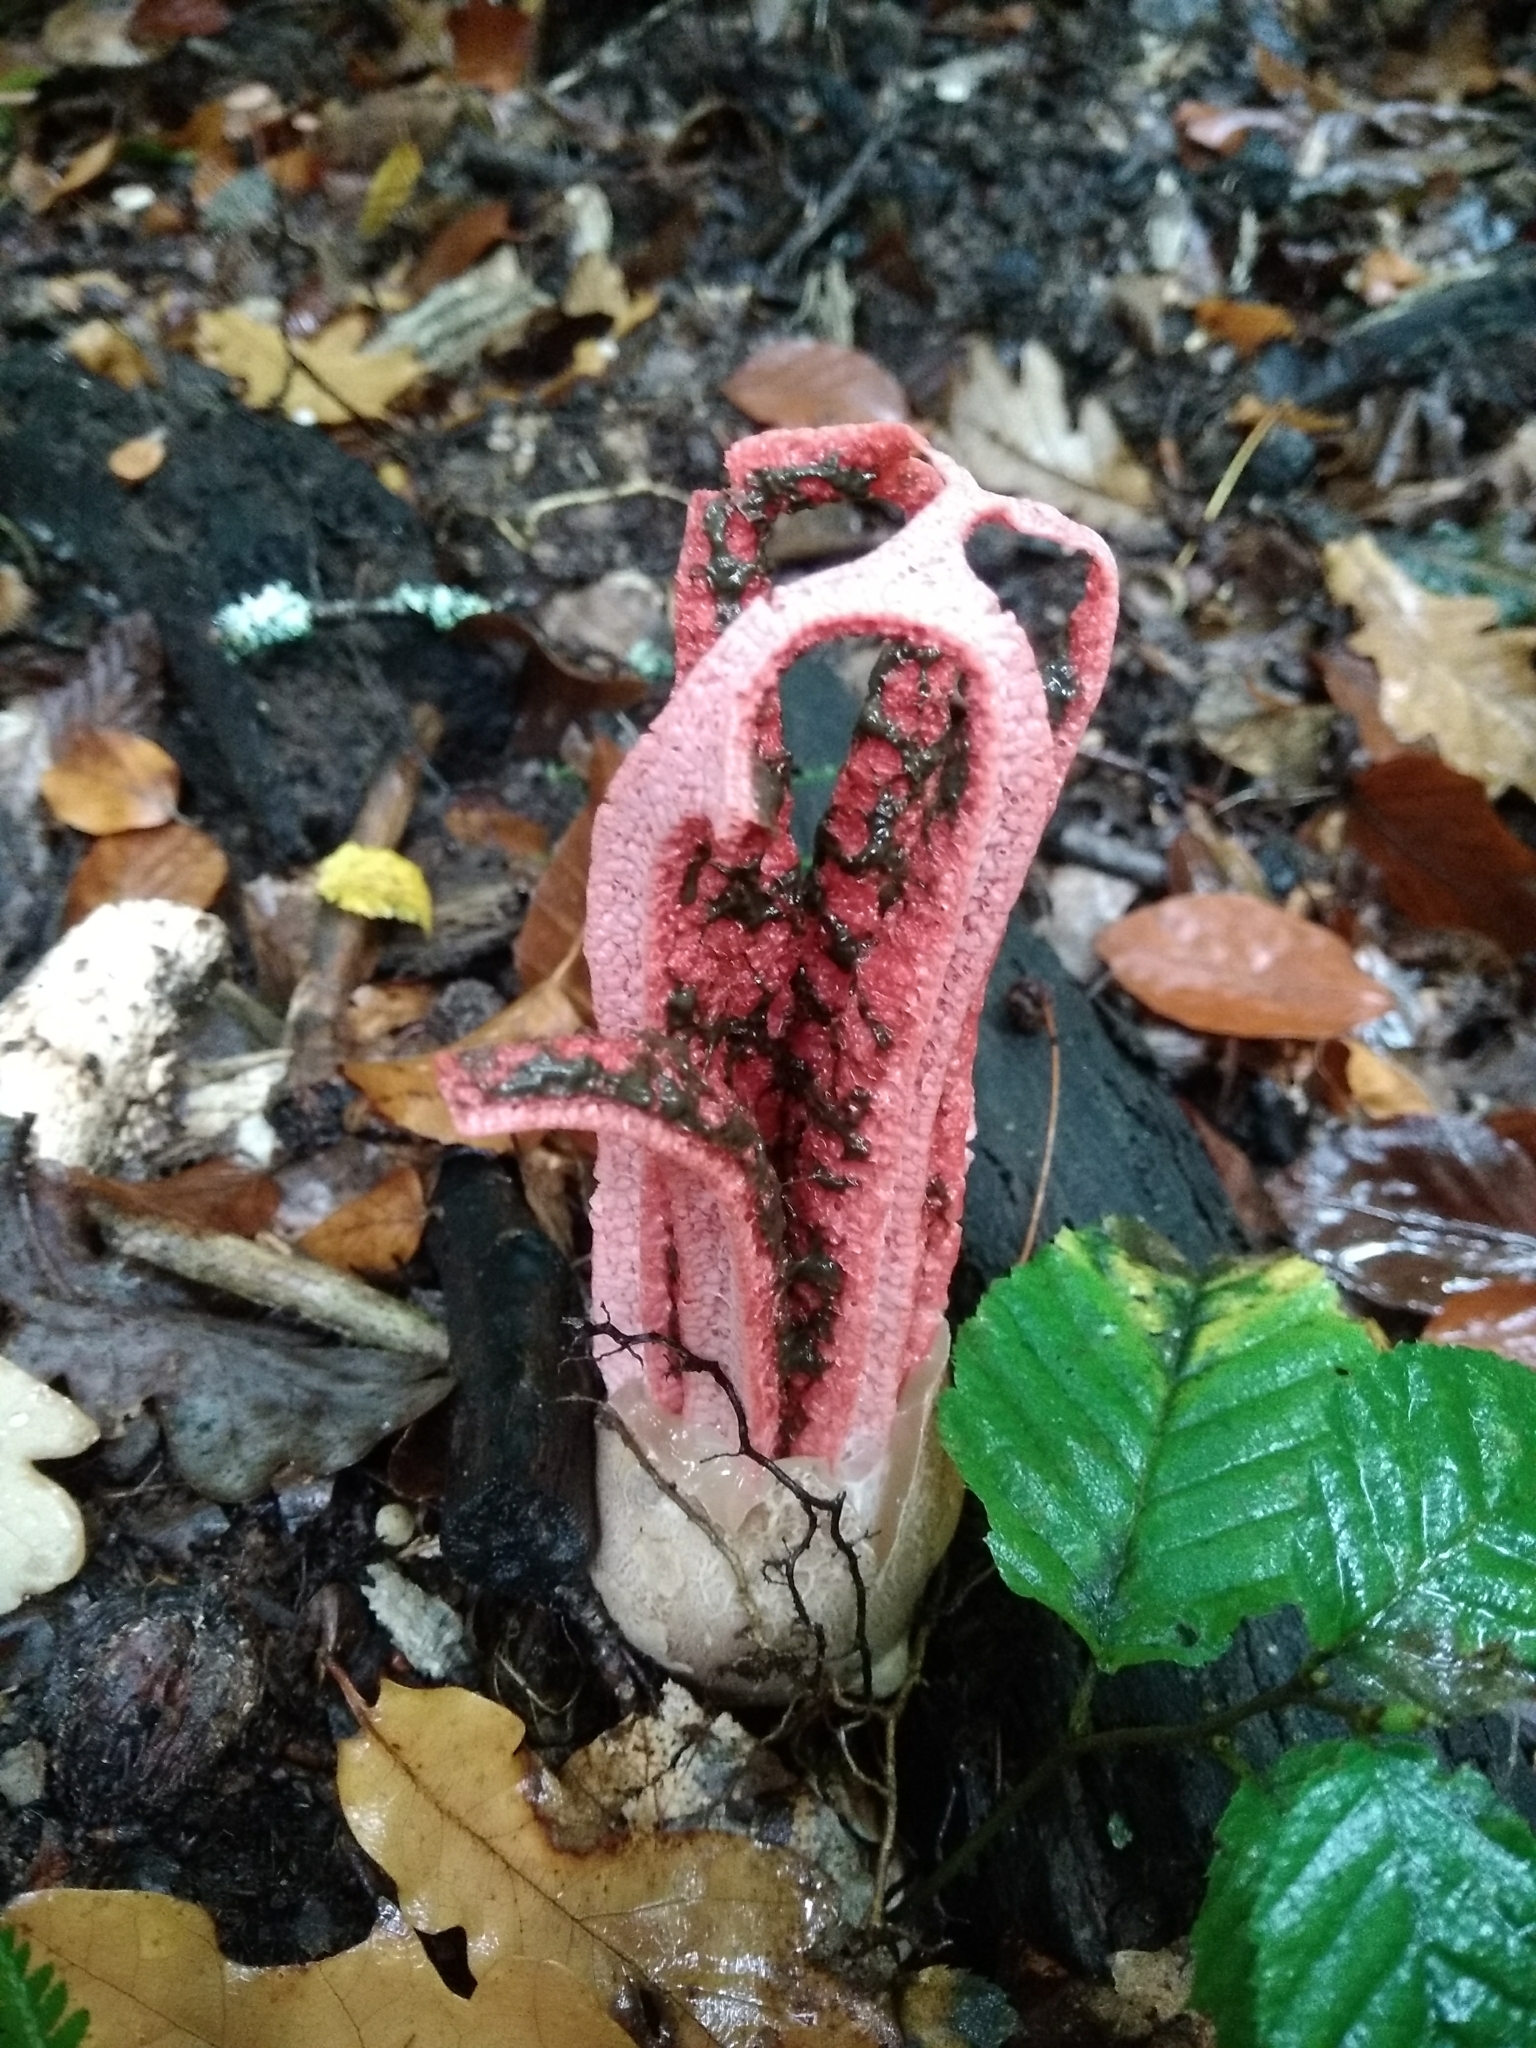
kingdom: Fungi
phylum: Basidiomycota
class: Agaricomycetes
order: Phallales
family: Phallaceae
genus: Clathrus
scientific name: Clathrus archeri
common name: Devil's fingers
